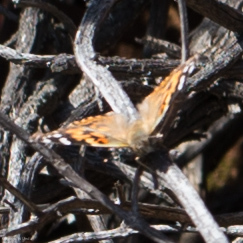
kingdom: Animalia
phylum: Arthropoda
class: Insecta
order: Lepidoptera
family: Nymphalidae
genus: Vanessa
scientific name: Vanessa cardui
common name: Painted lady
